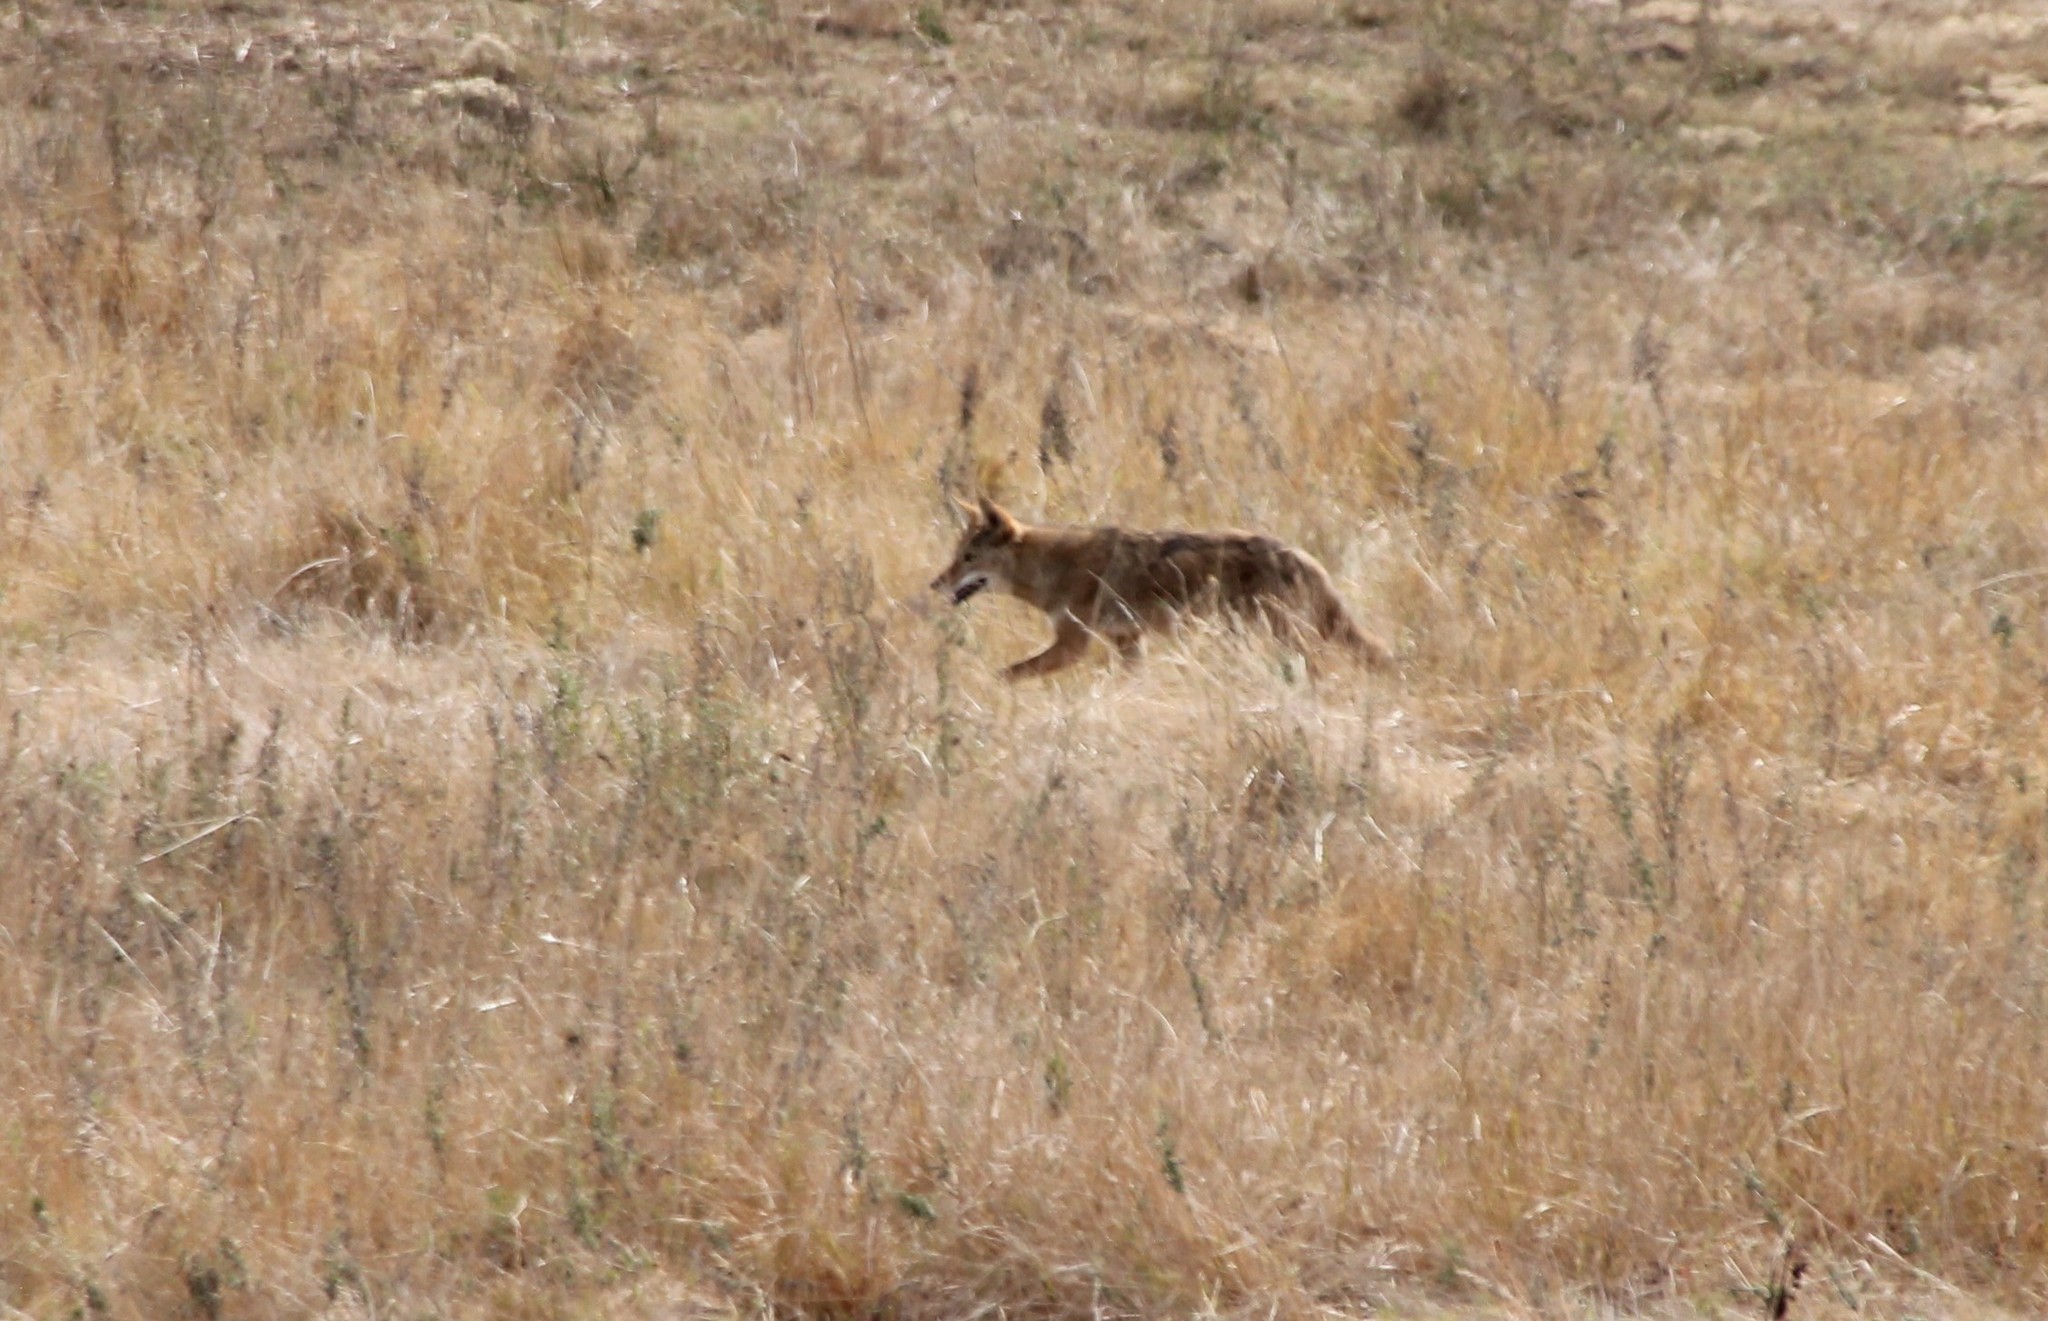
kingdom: Animalia
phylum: Chordata
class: Mammalia
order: Carnivora
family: Canidae
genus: Canis
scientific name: Canis latrans
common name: Coyote
